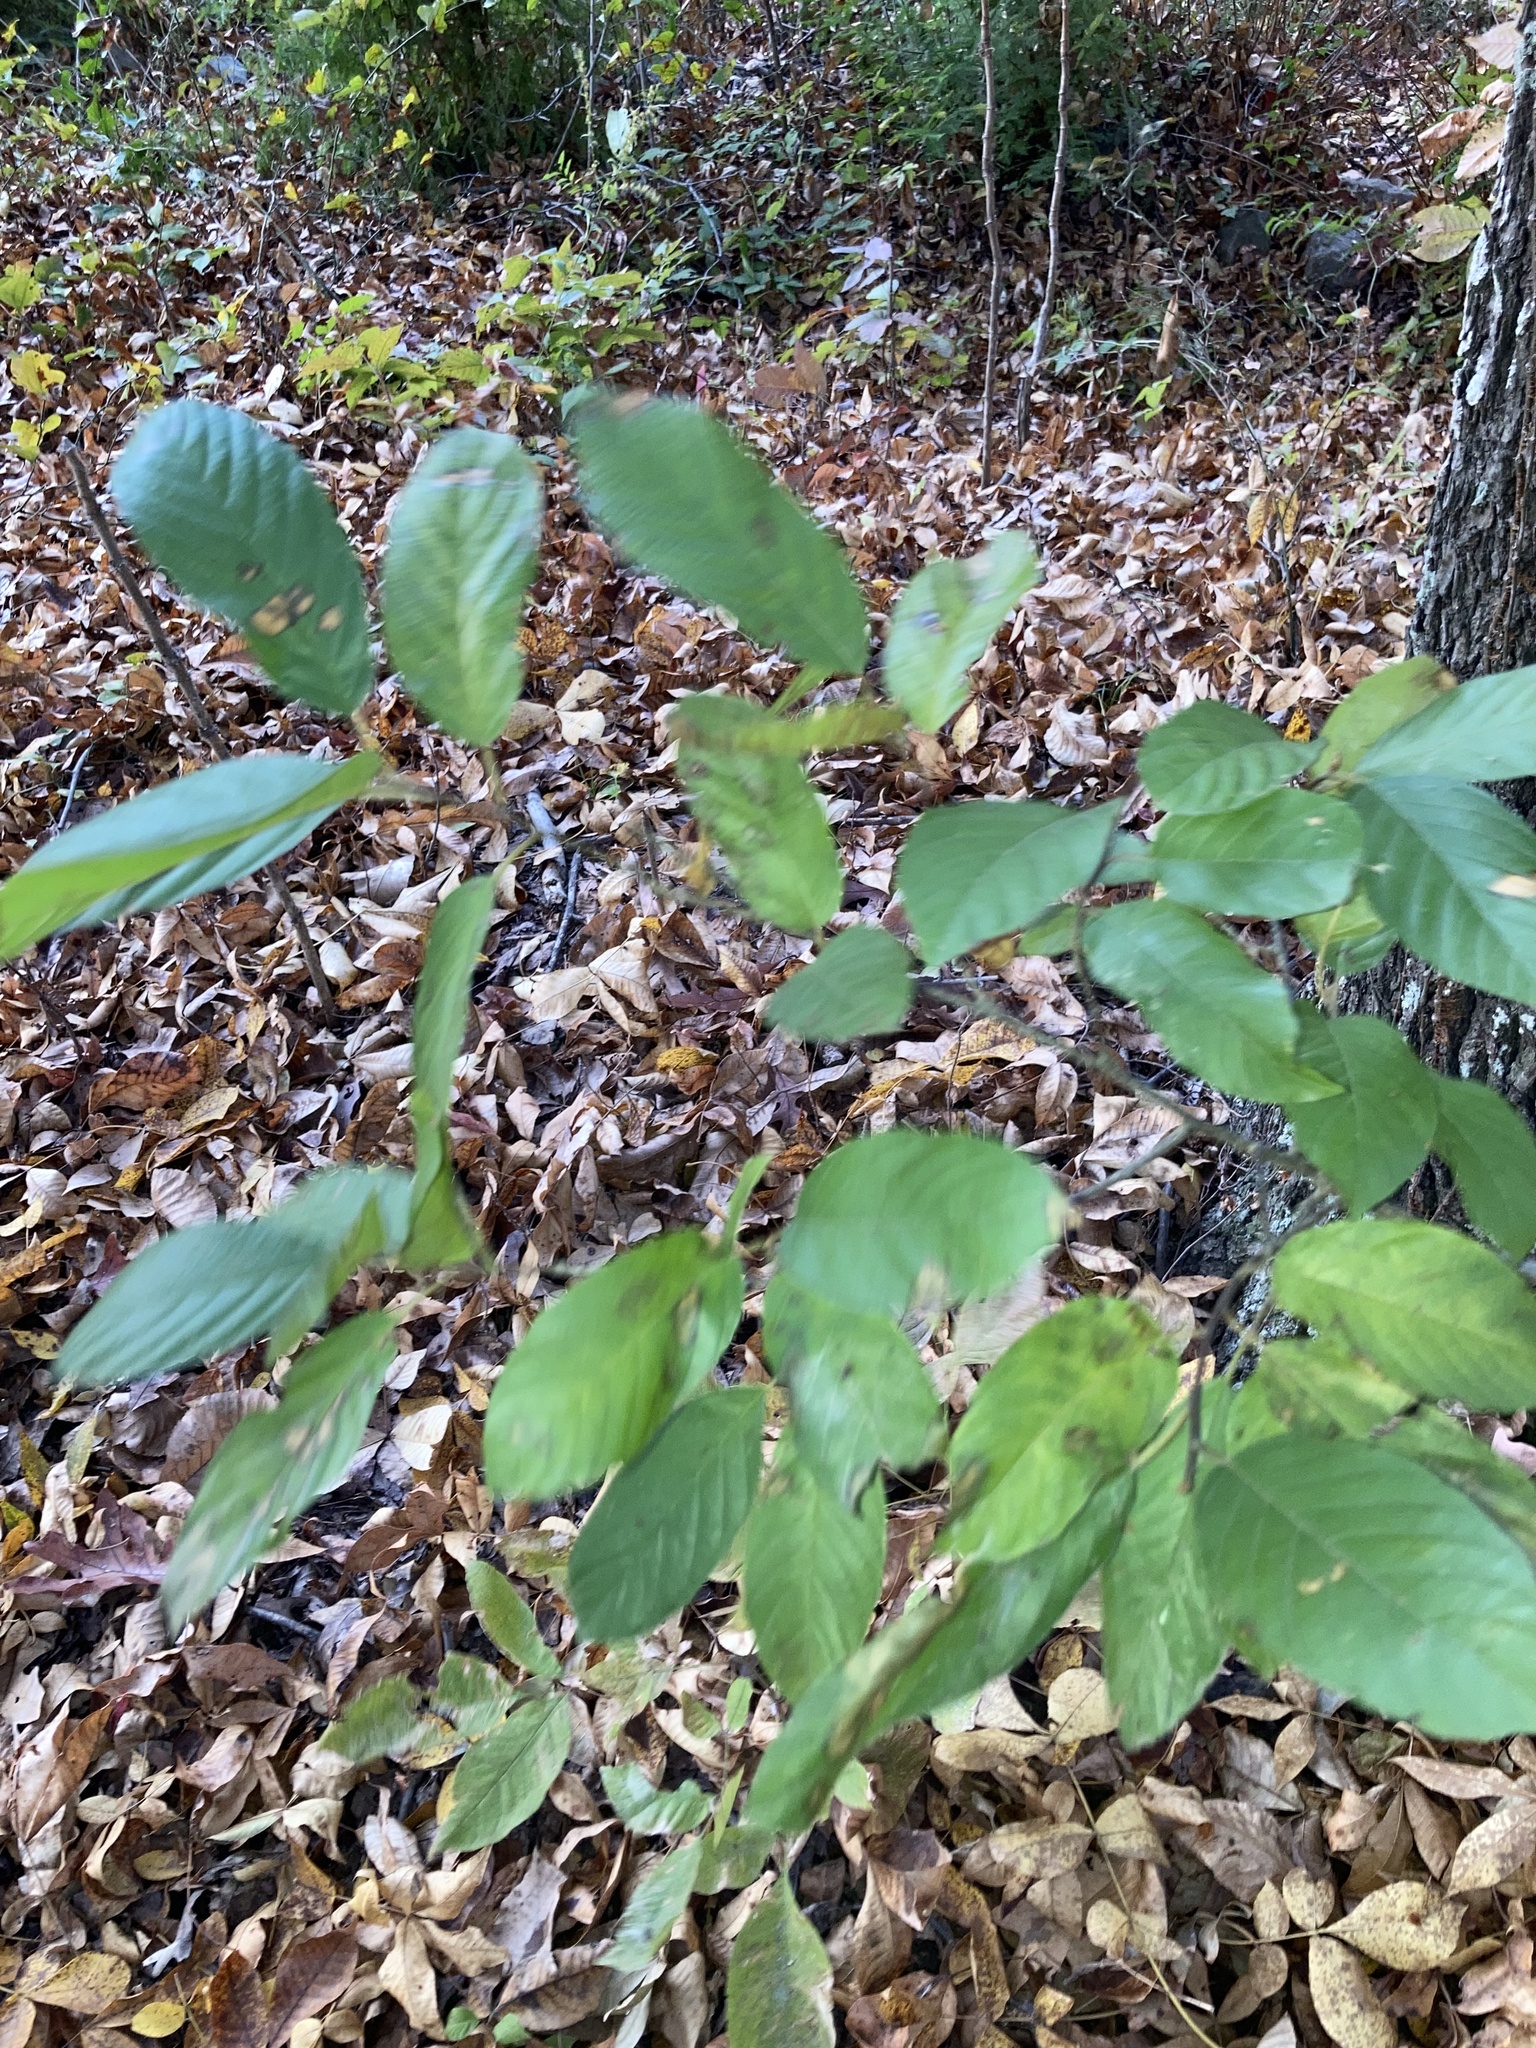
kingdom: Plantae
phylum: Tracheophyta
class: Magnoliopsida
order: Rosales
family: Rhamnaceae
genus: Frangula
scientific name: Frangula caroliniana
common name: Carolina buckthorn
